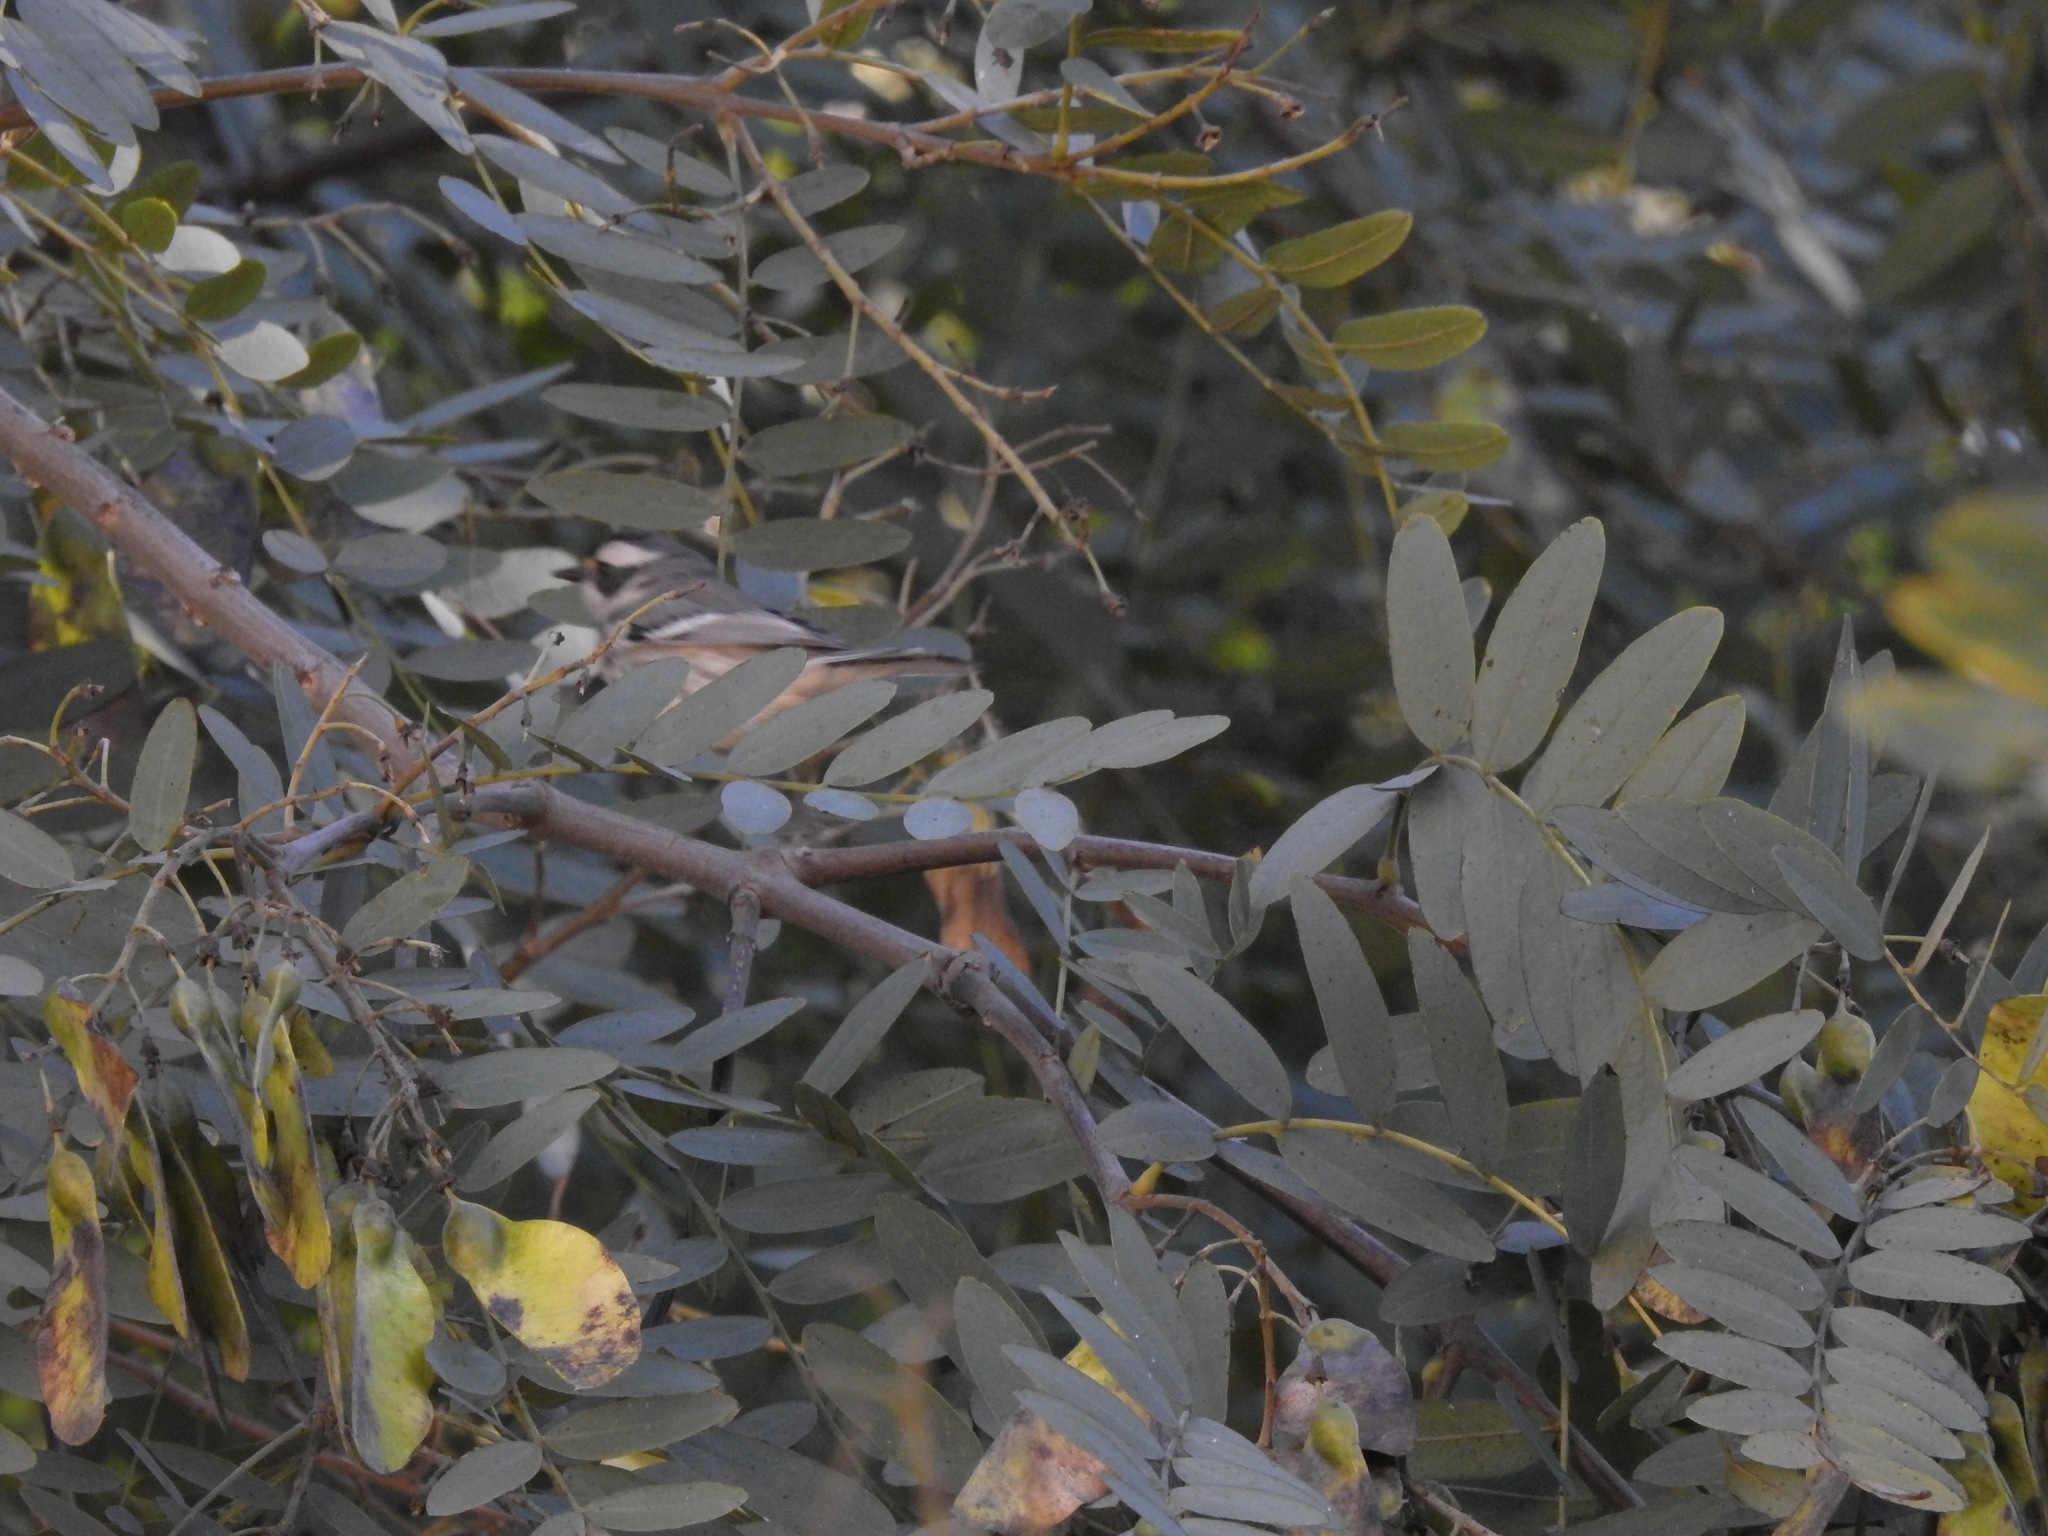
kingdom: Animalia
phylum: Chordata
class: Aves
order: Passeriformes
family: Parulidae
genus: Setophaga
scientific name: Setophaga nigrescens
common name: Black-throated gray warbler
